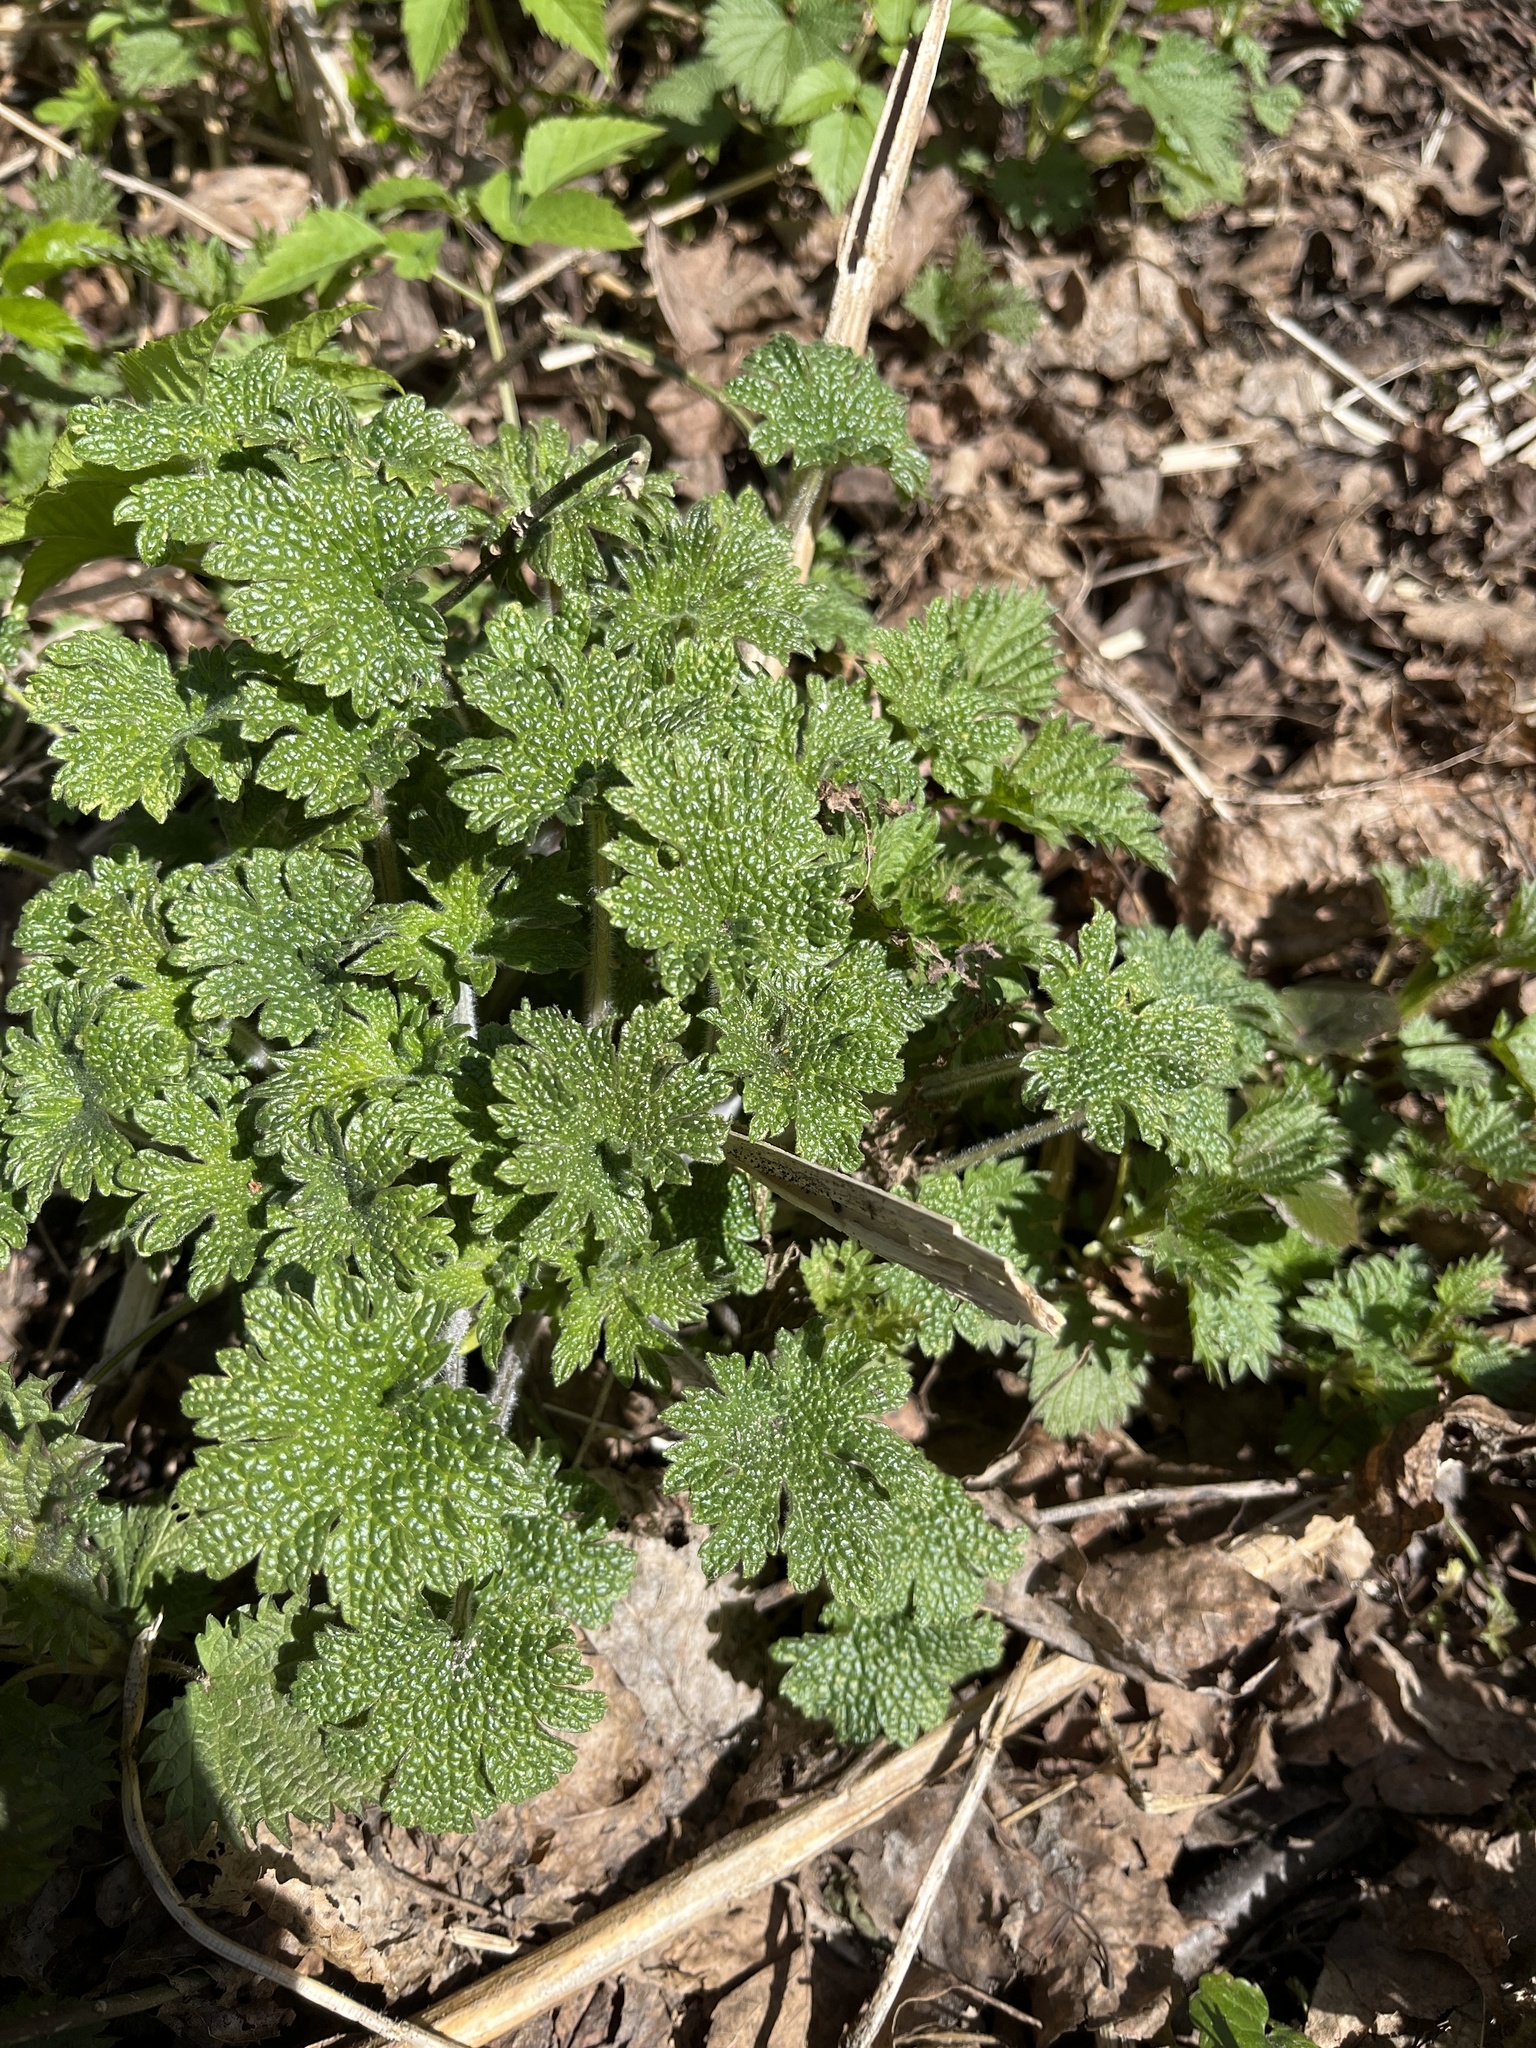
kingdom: Plantae
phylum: Tracheophyta
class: Magnoliopsida
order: Lamiales
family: Lamiaceae
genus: Leonurus
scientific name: Leonurus quinquelobatus
